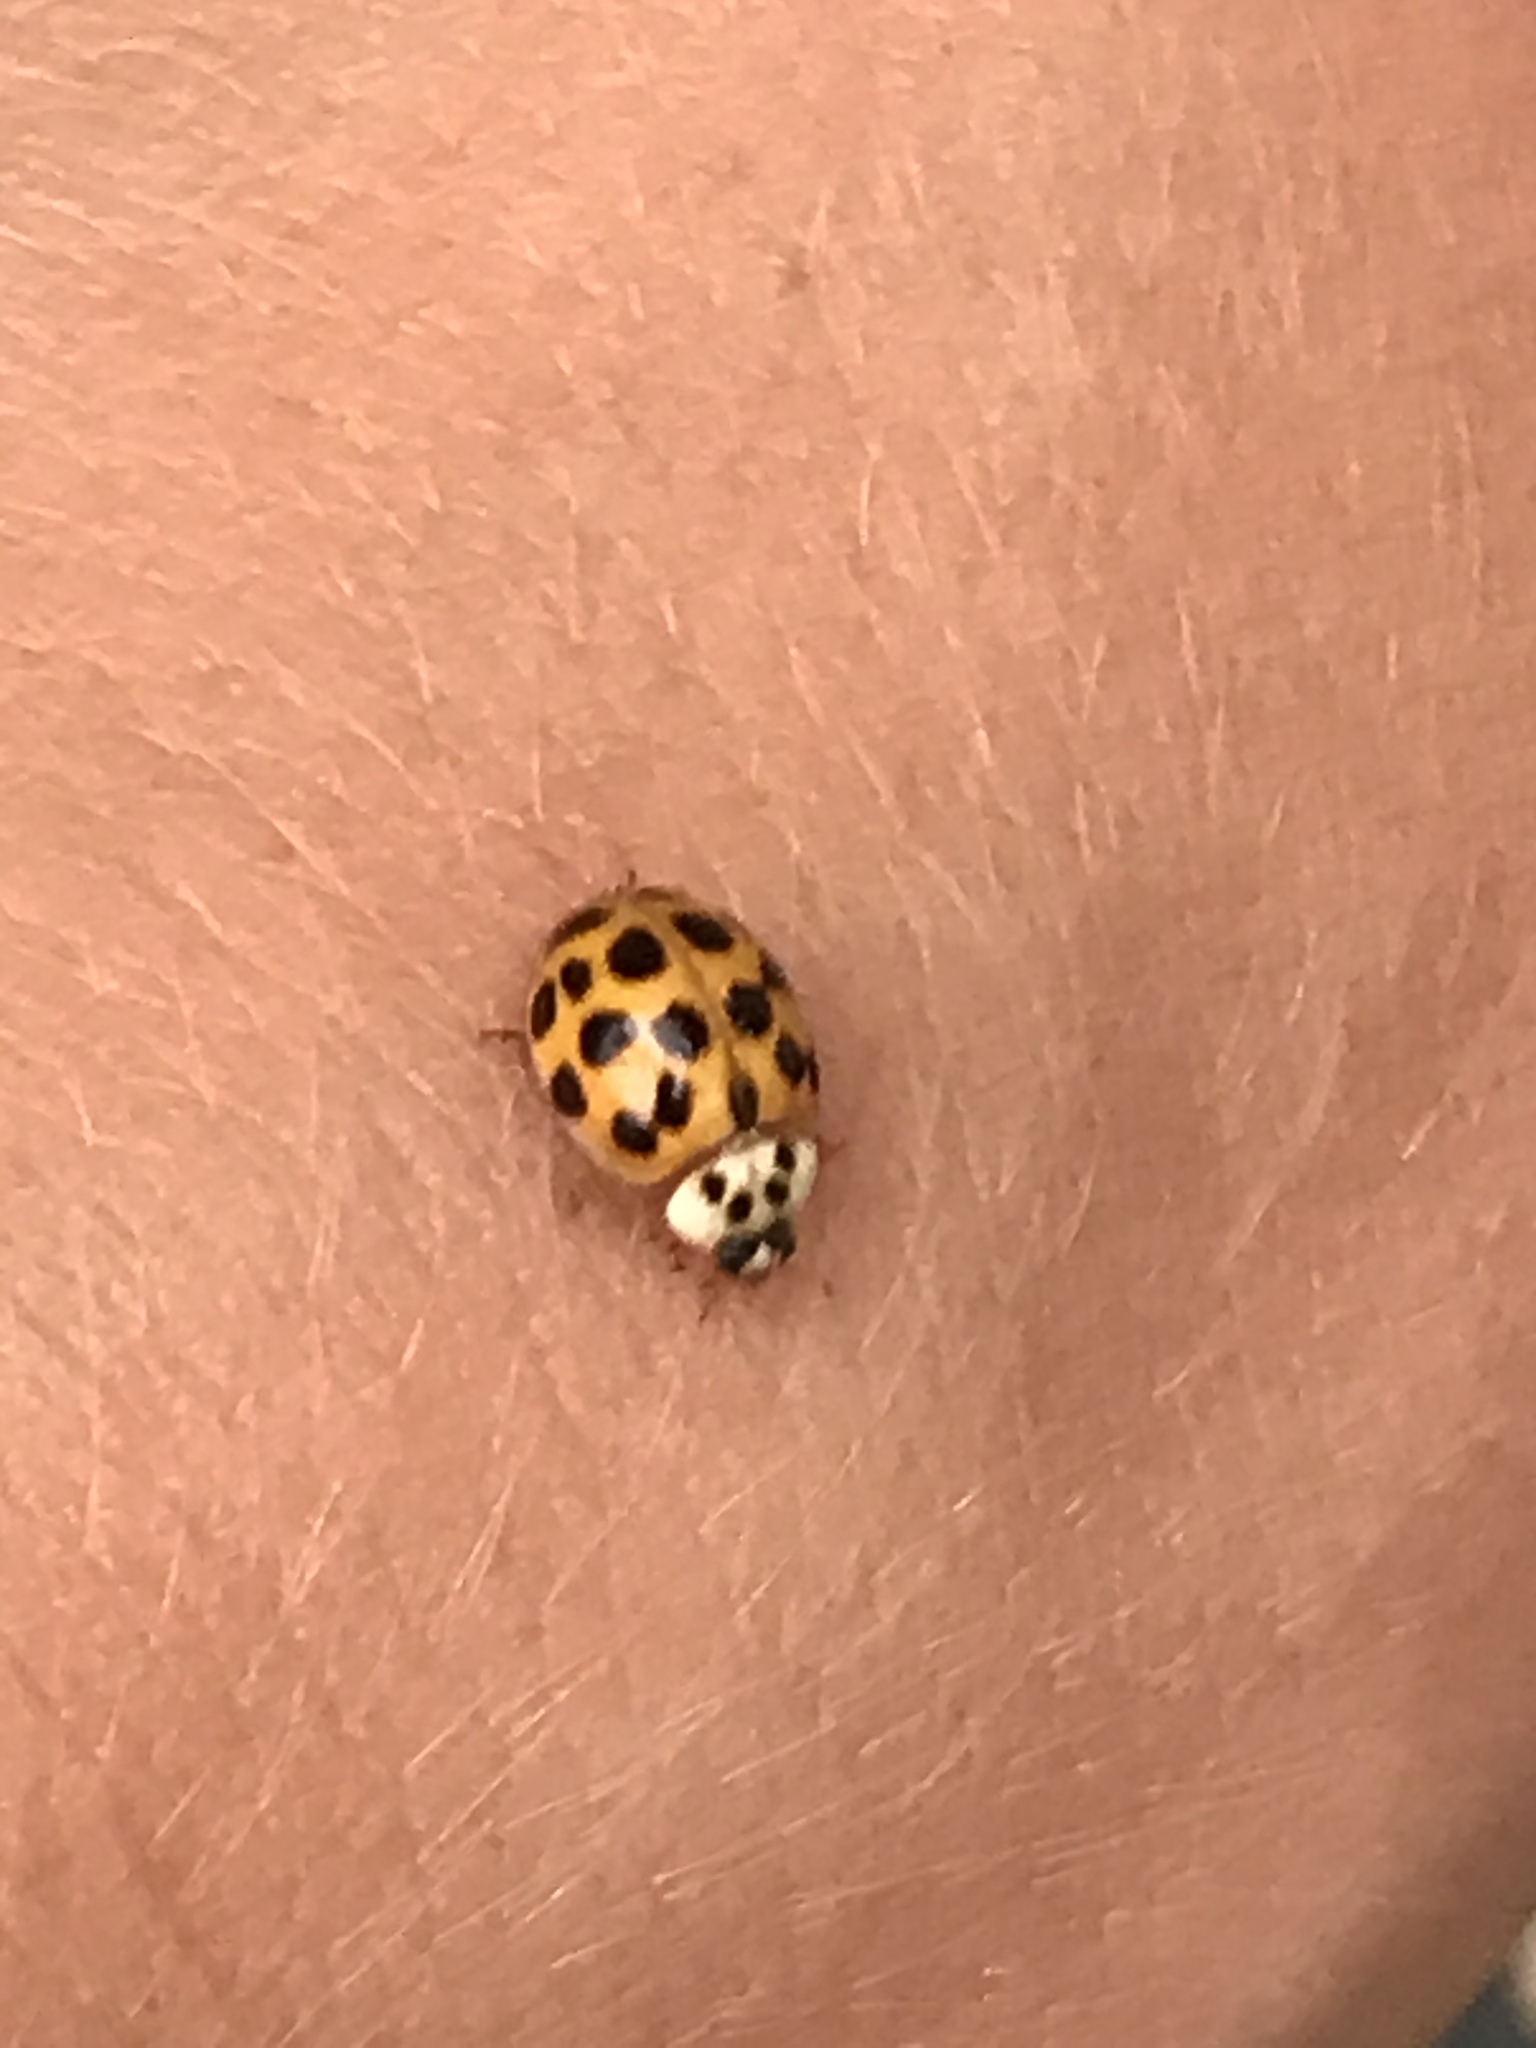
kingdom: Animalia
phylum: Arthropoda
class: Insecta
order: Coleoptera
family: Coccinellidae
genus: Harmonia
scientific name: Harmonia axyridis
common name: Harlequin ladybird
